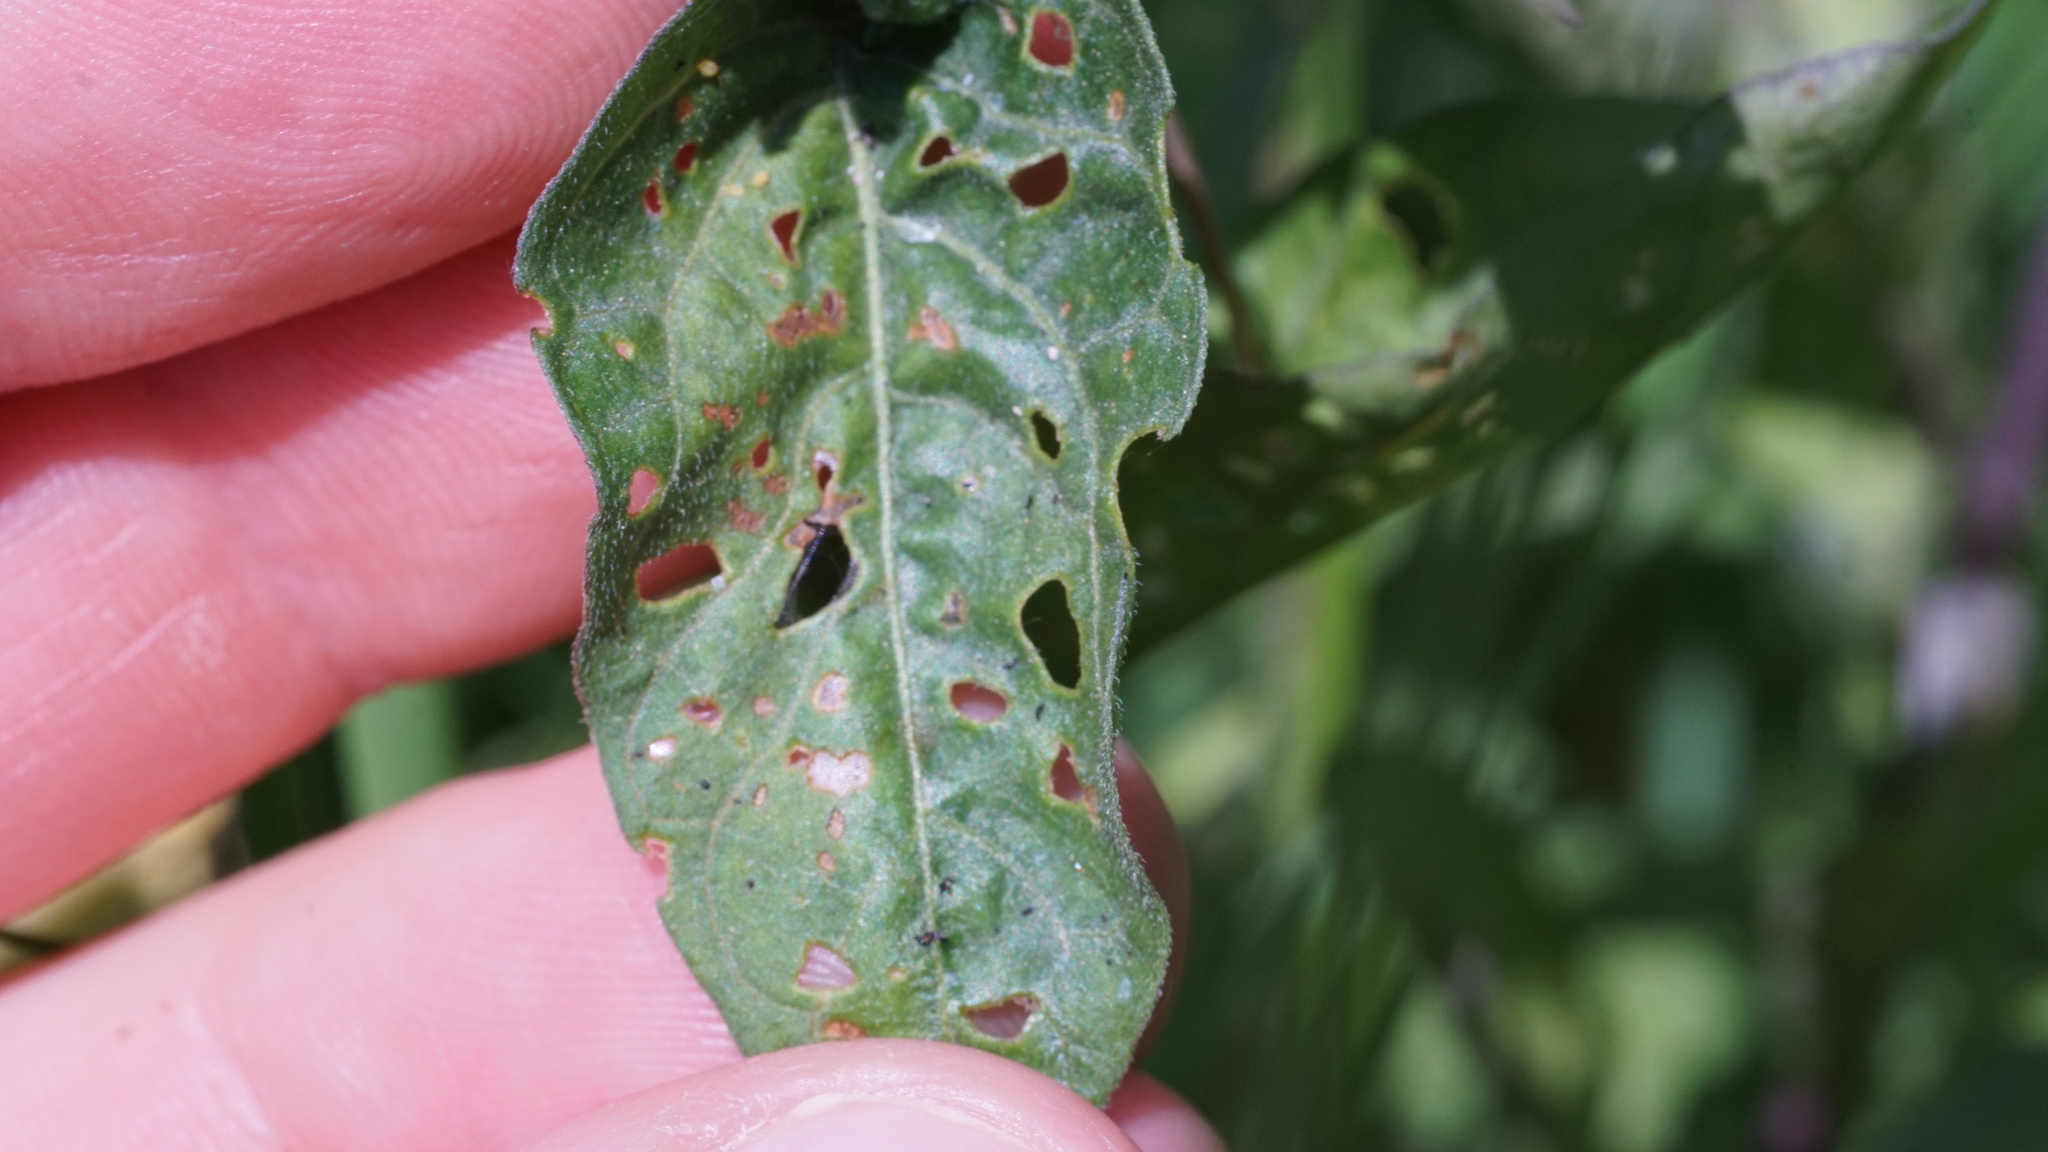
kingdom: Plantae
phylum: Tracheophyta
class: Magnoliopsida
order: Solanales
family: Solanaceae
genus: Solanum
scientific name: Solanum dulcamara
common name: Climbing nightshade
